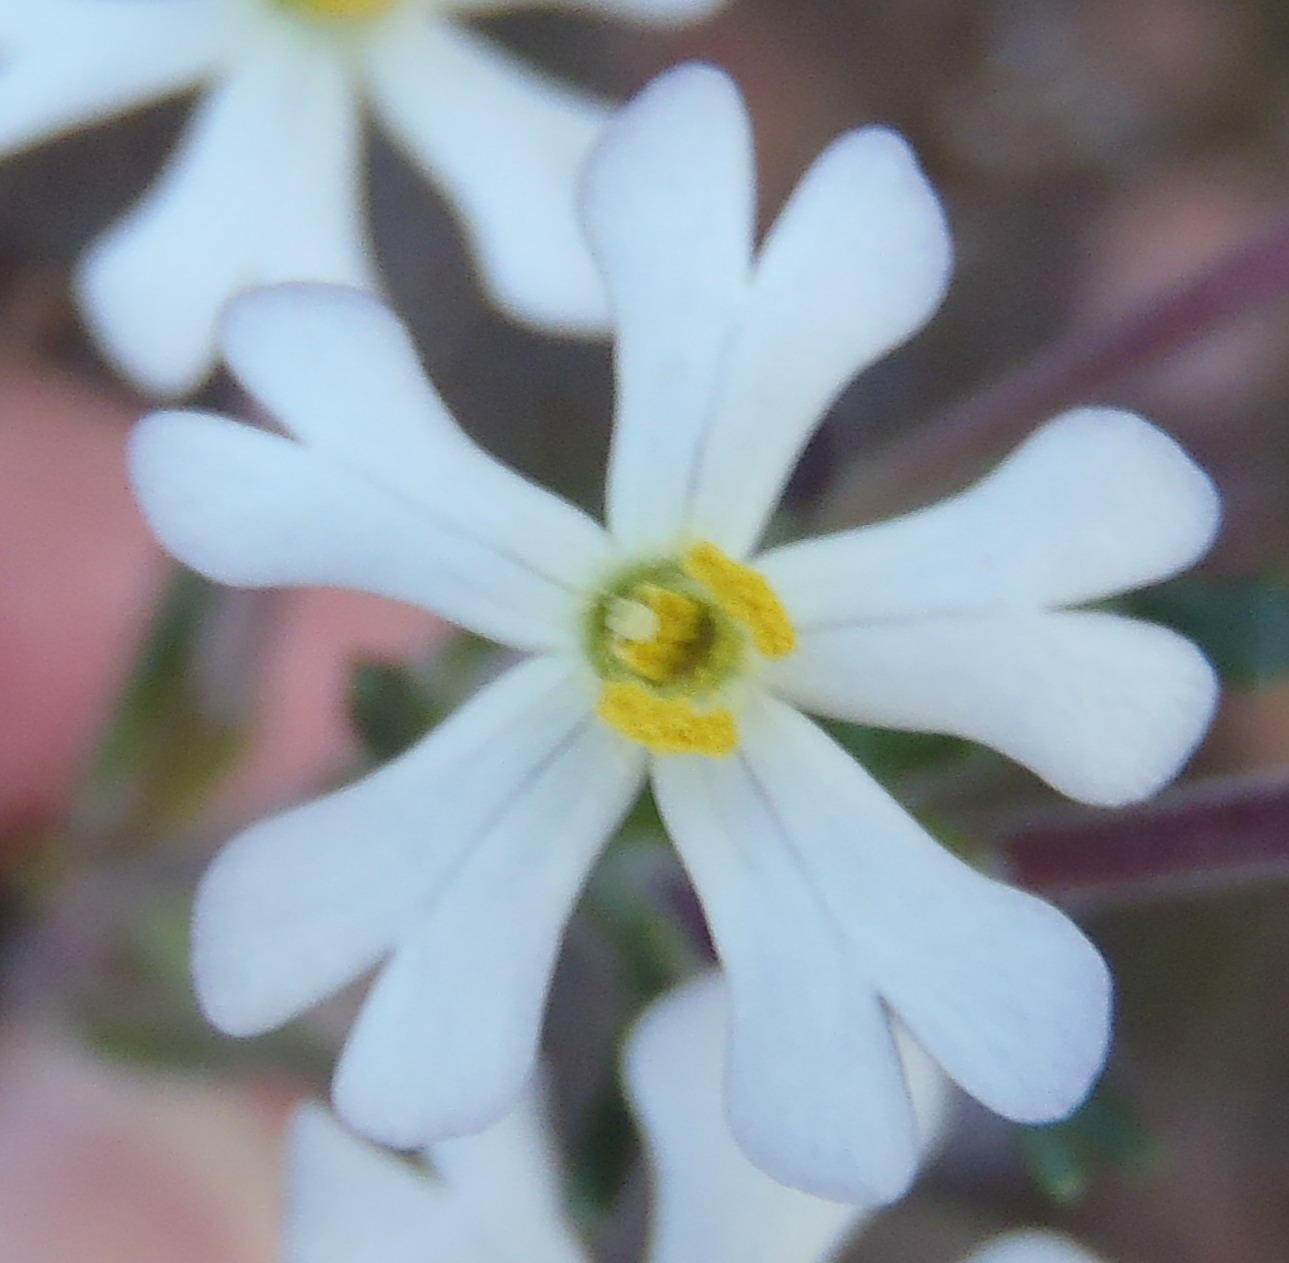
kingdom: Plantae
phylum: Tracheophyta
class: Magnoliopsida
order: Lamiales
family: Scrophulariaceae
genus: Zaluzianskya
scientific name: Zaluzianskya capensis
